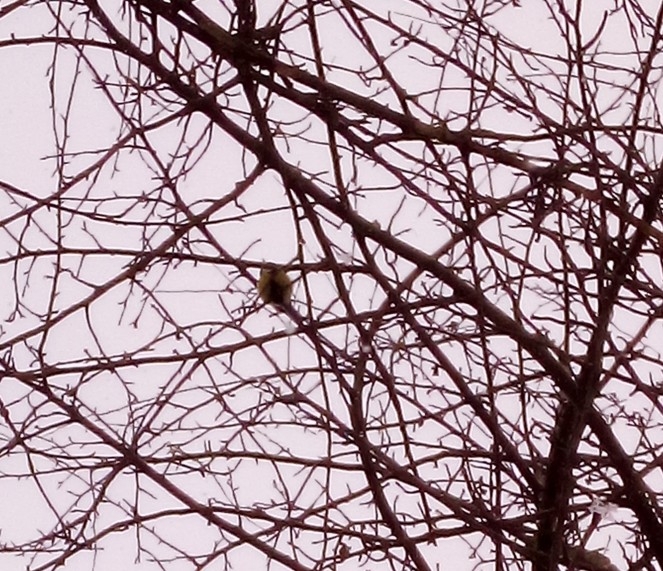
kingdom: Animalia
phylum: Chordata
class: Aves
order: Passeriformes
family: Paridae
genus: Cyanistes
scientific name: Cyanistes caeruleus
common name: Eurasian blue tit
